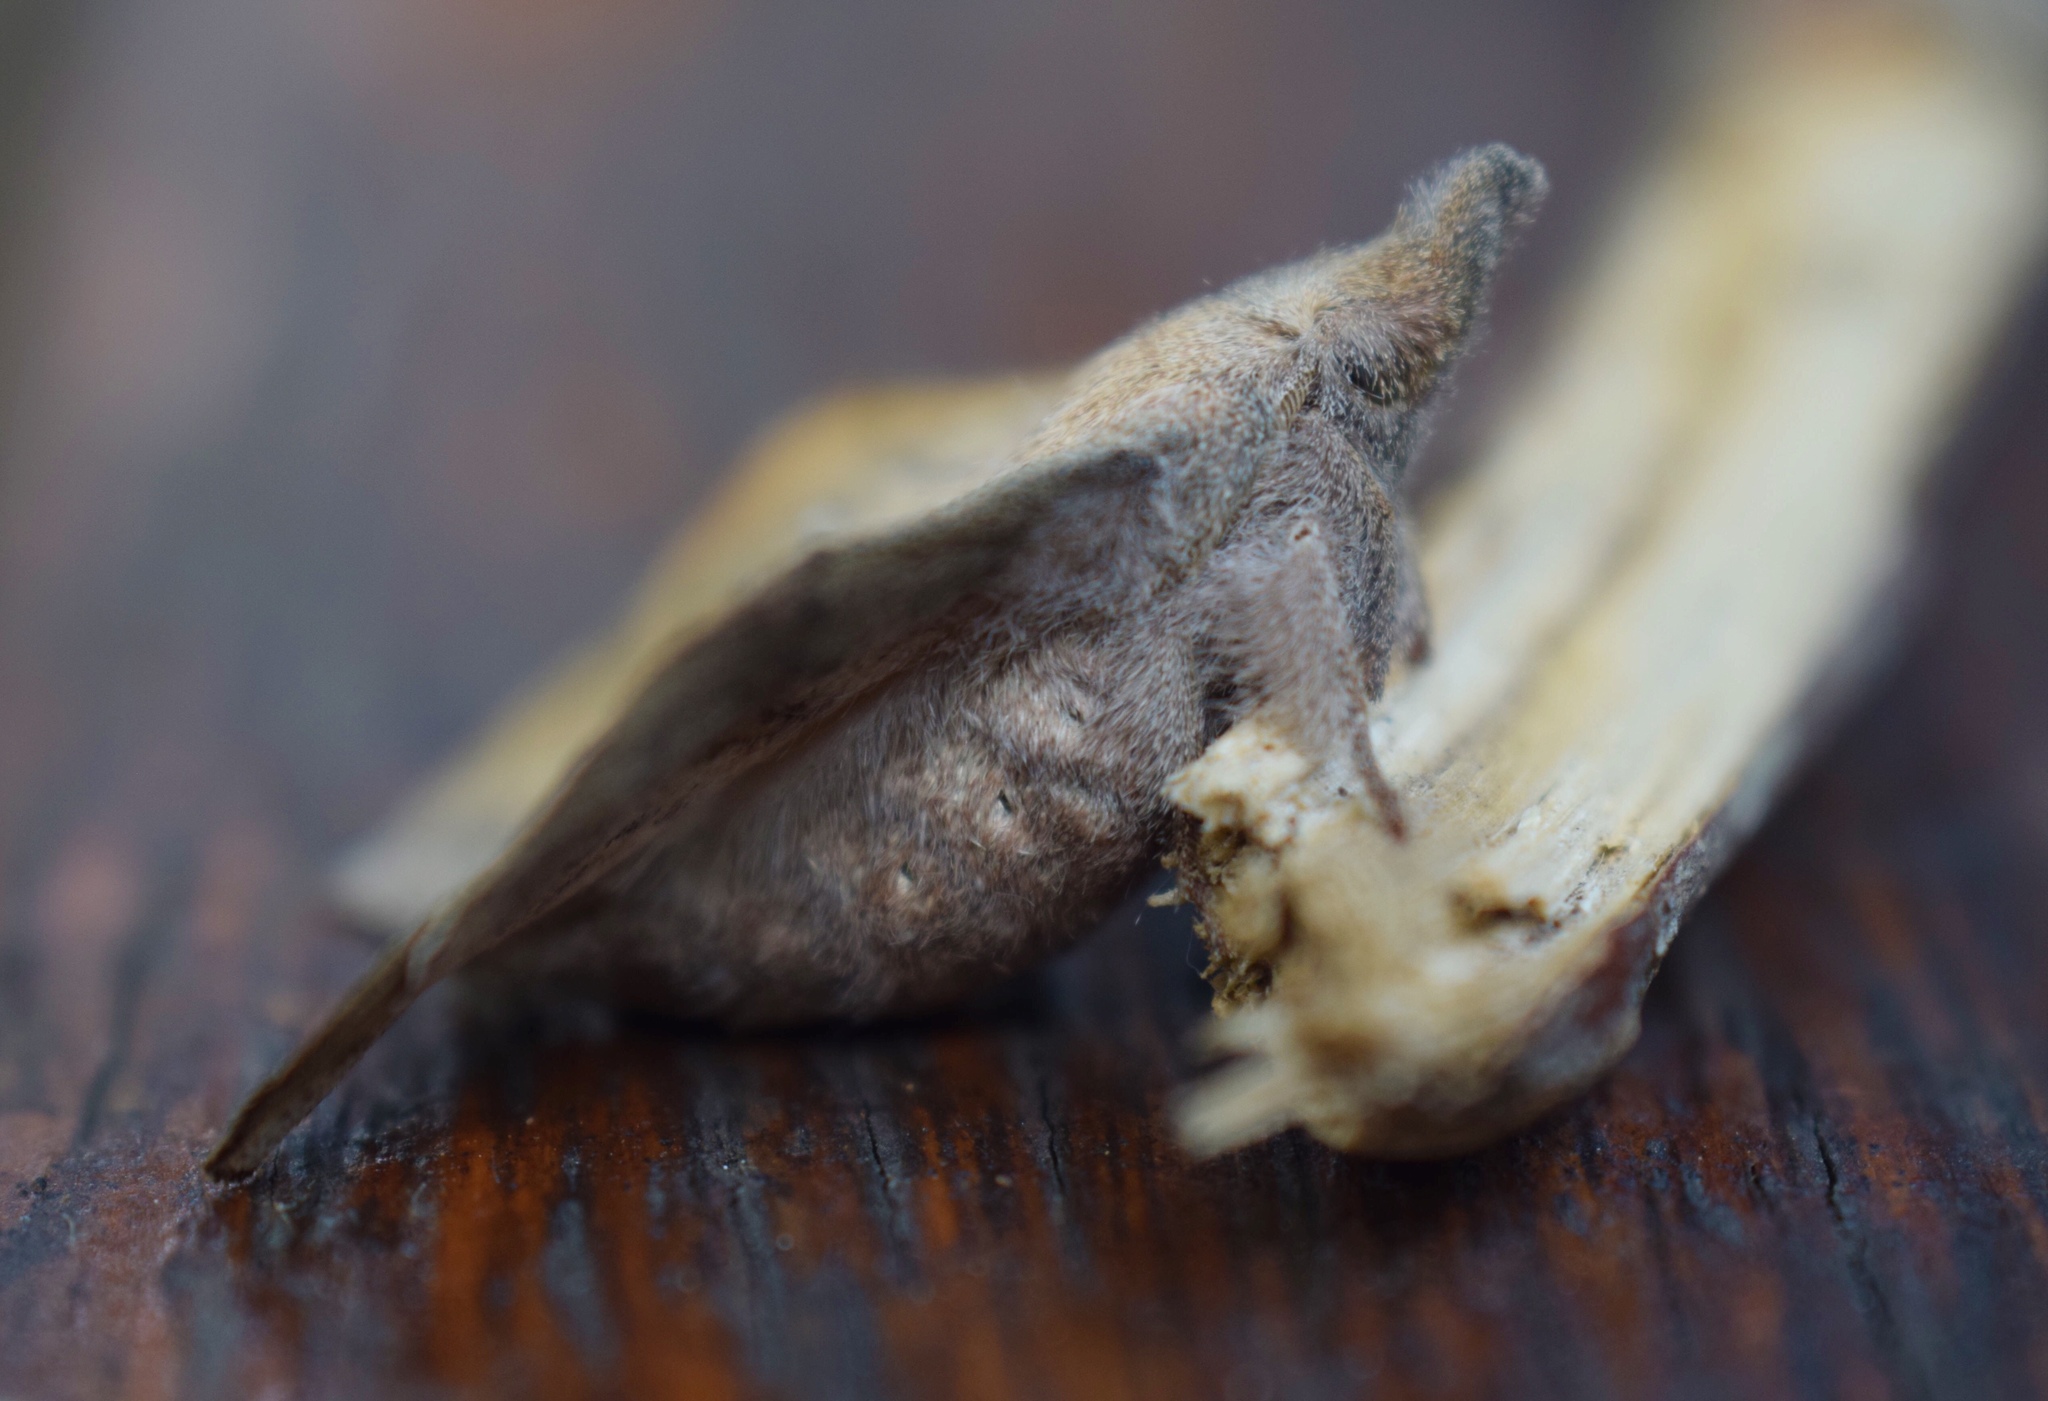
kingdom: Animalia
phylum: Arthropoda
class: Insecta
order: Lepidoptera
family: Lasiocampidae
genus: Leipoxais
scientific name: Leipoxais peraffinis
